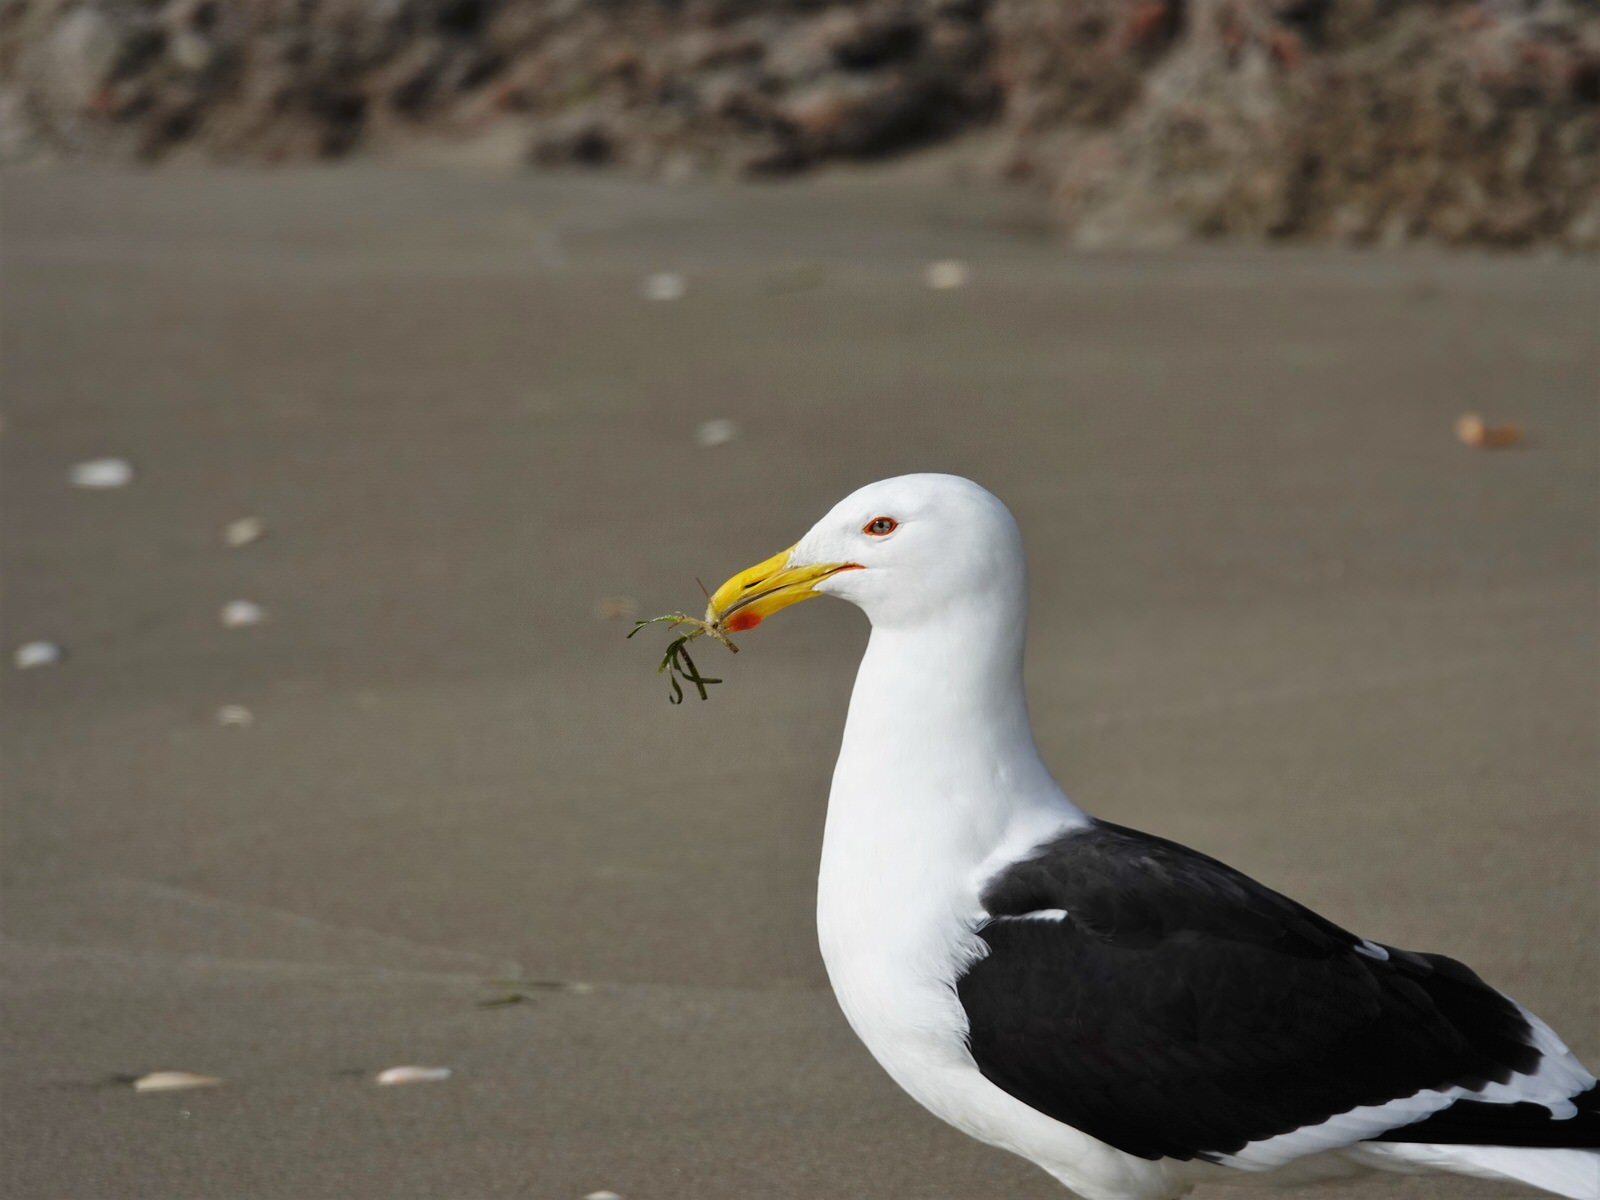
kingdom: Animalia
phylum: Chordata
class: Aves
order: Charadriiformes
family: Laridae
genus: Larus
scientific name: Larus dominicanus
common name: Kelp gull
